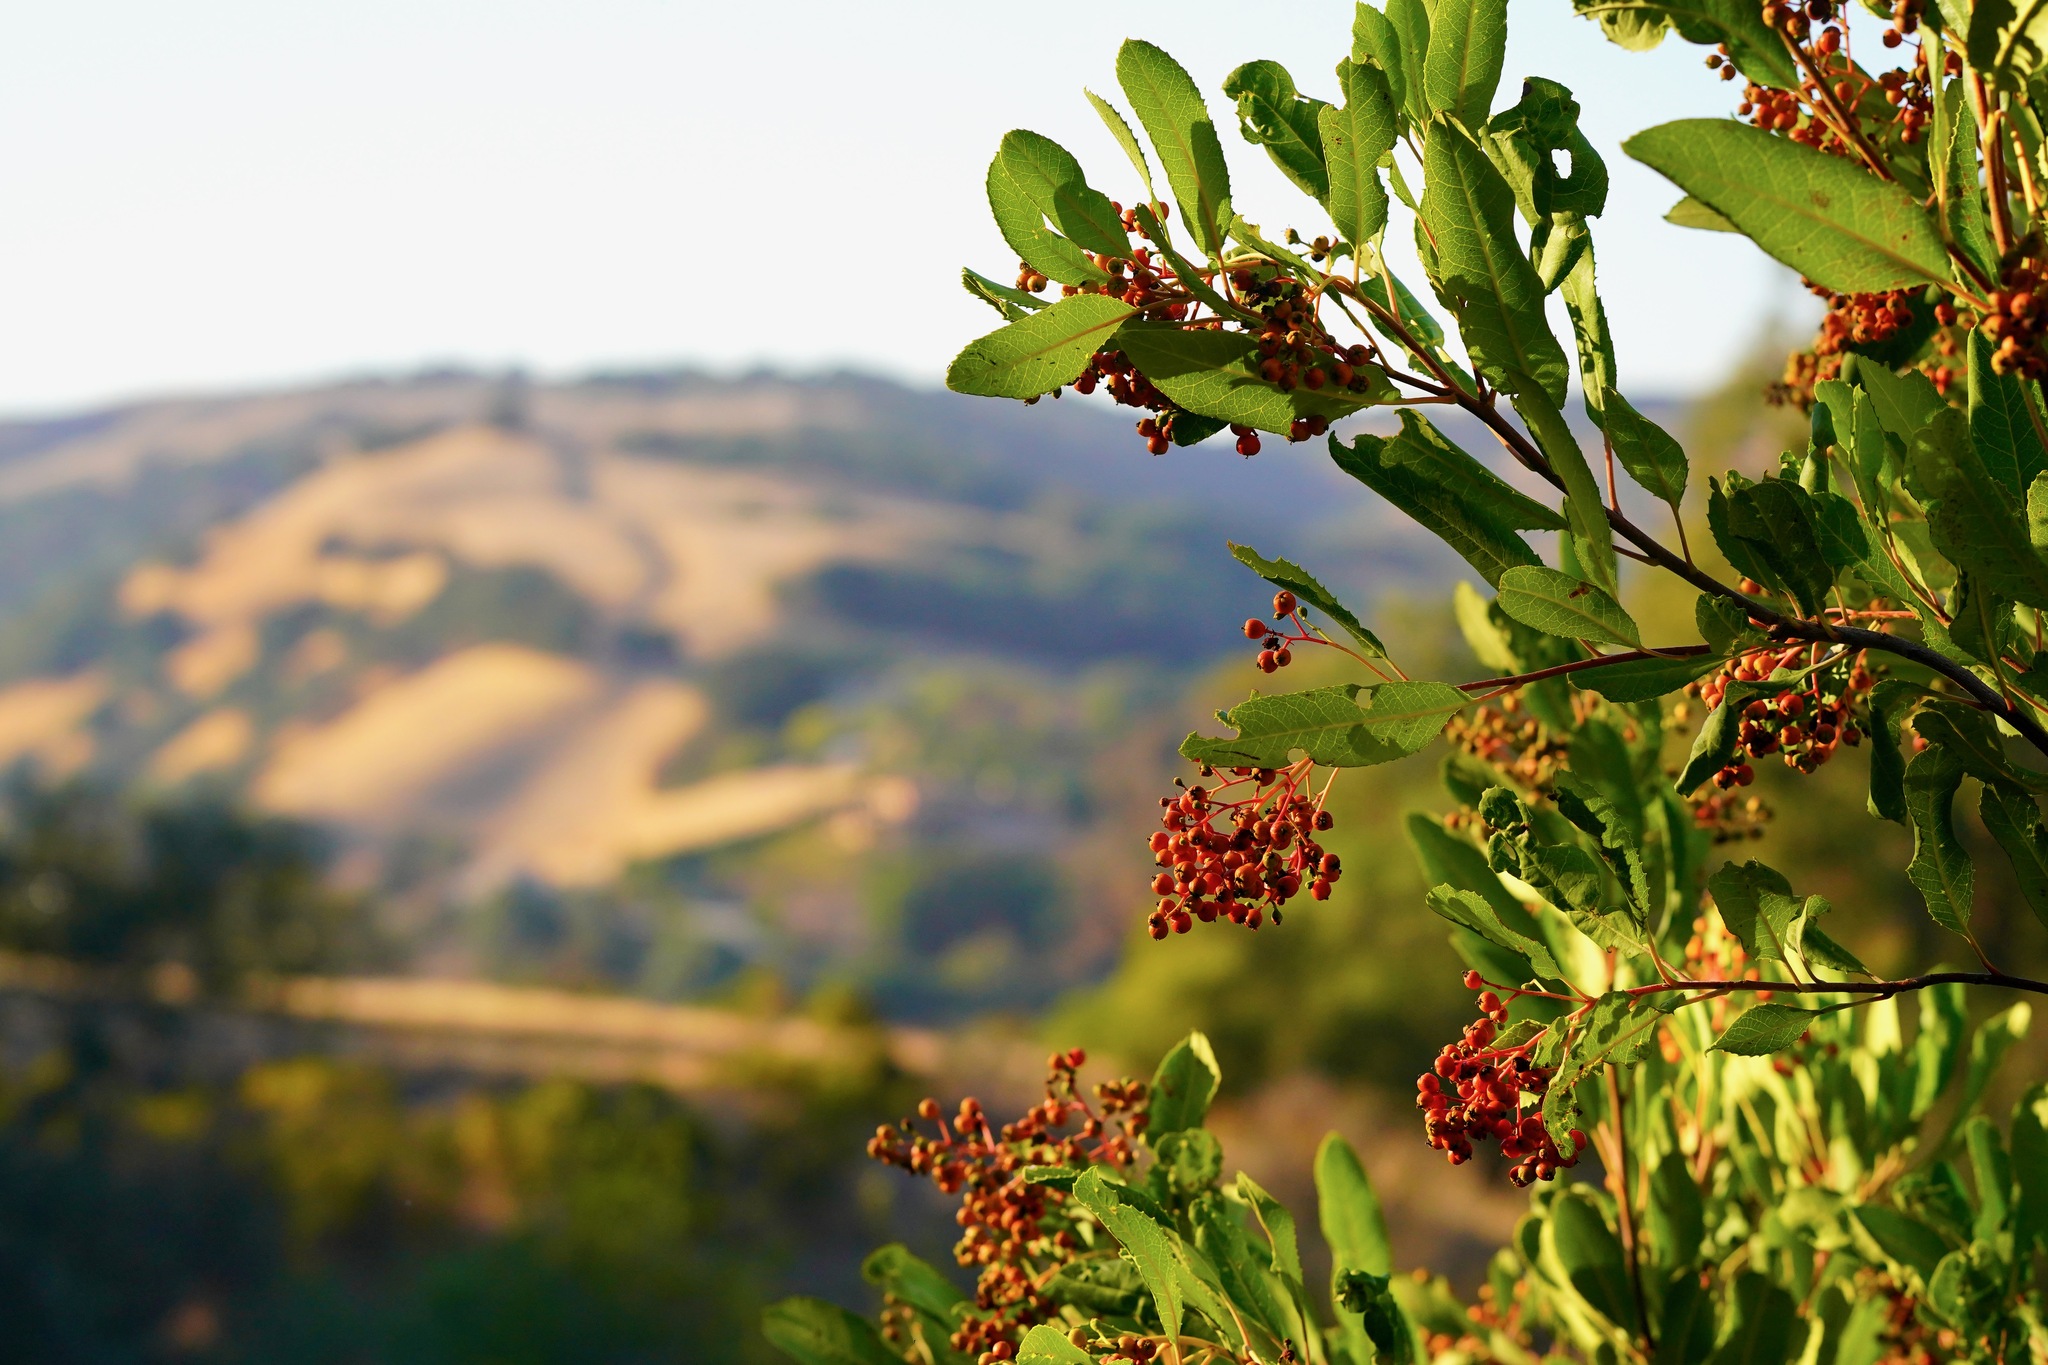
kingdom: Plantae
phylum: Tracheophyta
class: Magnoliopsida
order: Rosales
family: Rosaceae
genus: Heteromeles
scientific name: Heteromeles arbutifolia
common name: California-holly
